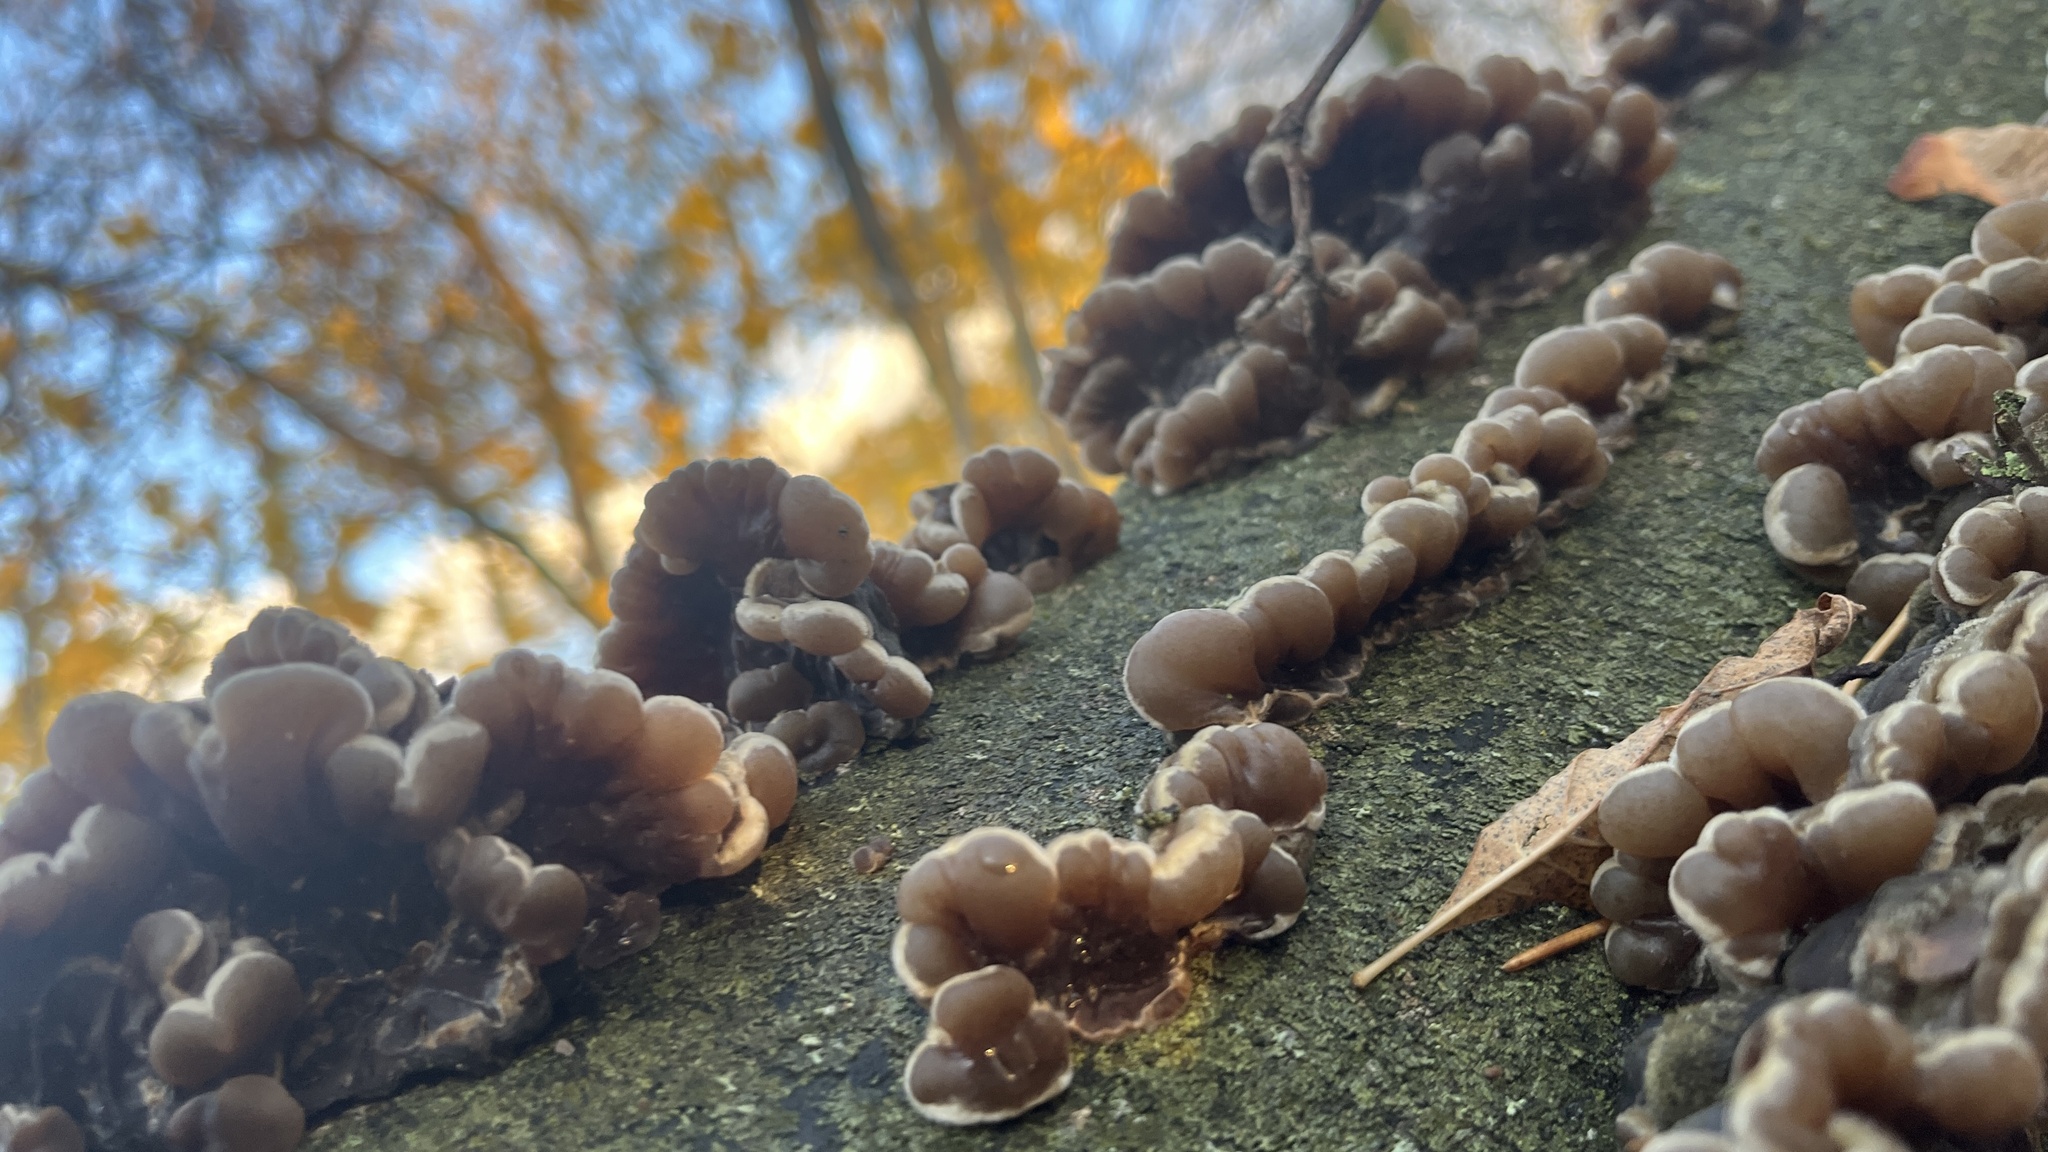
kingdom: Fungi
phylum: Basidiomycota
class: Agaricomycetes
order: Auriculariales
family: Auriculariaceae
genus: Auricularia
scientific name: Auricularia mesenterica
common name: Tripe fungus
